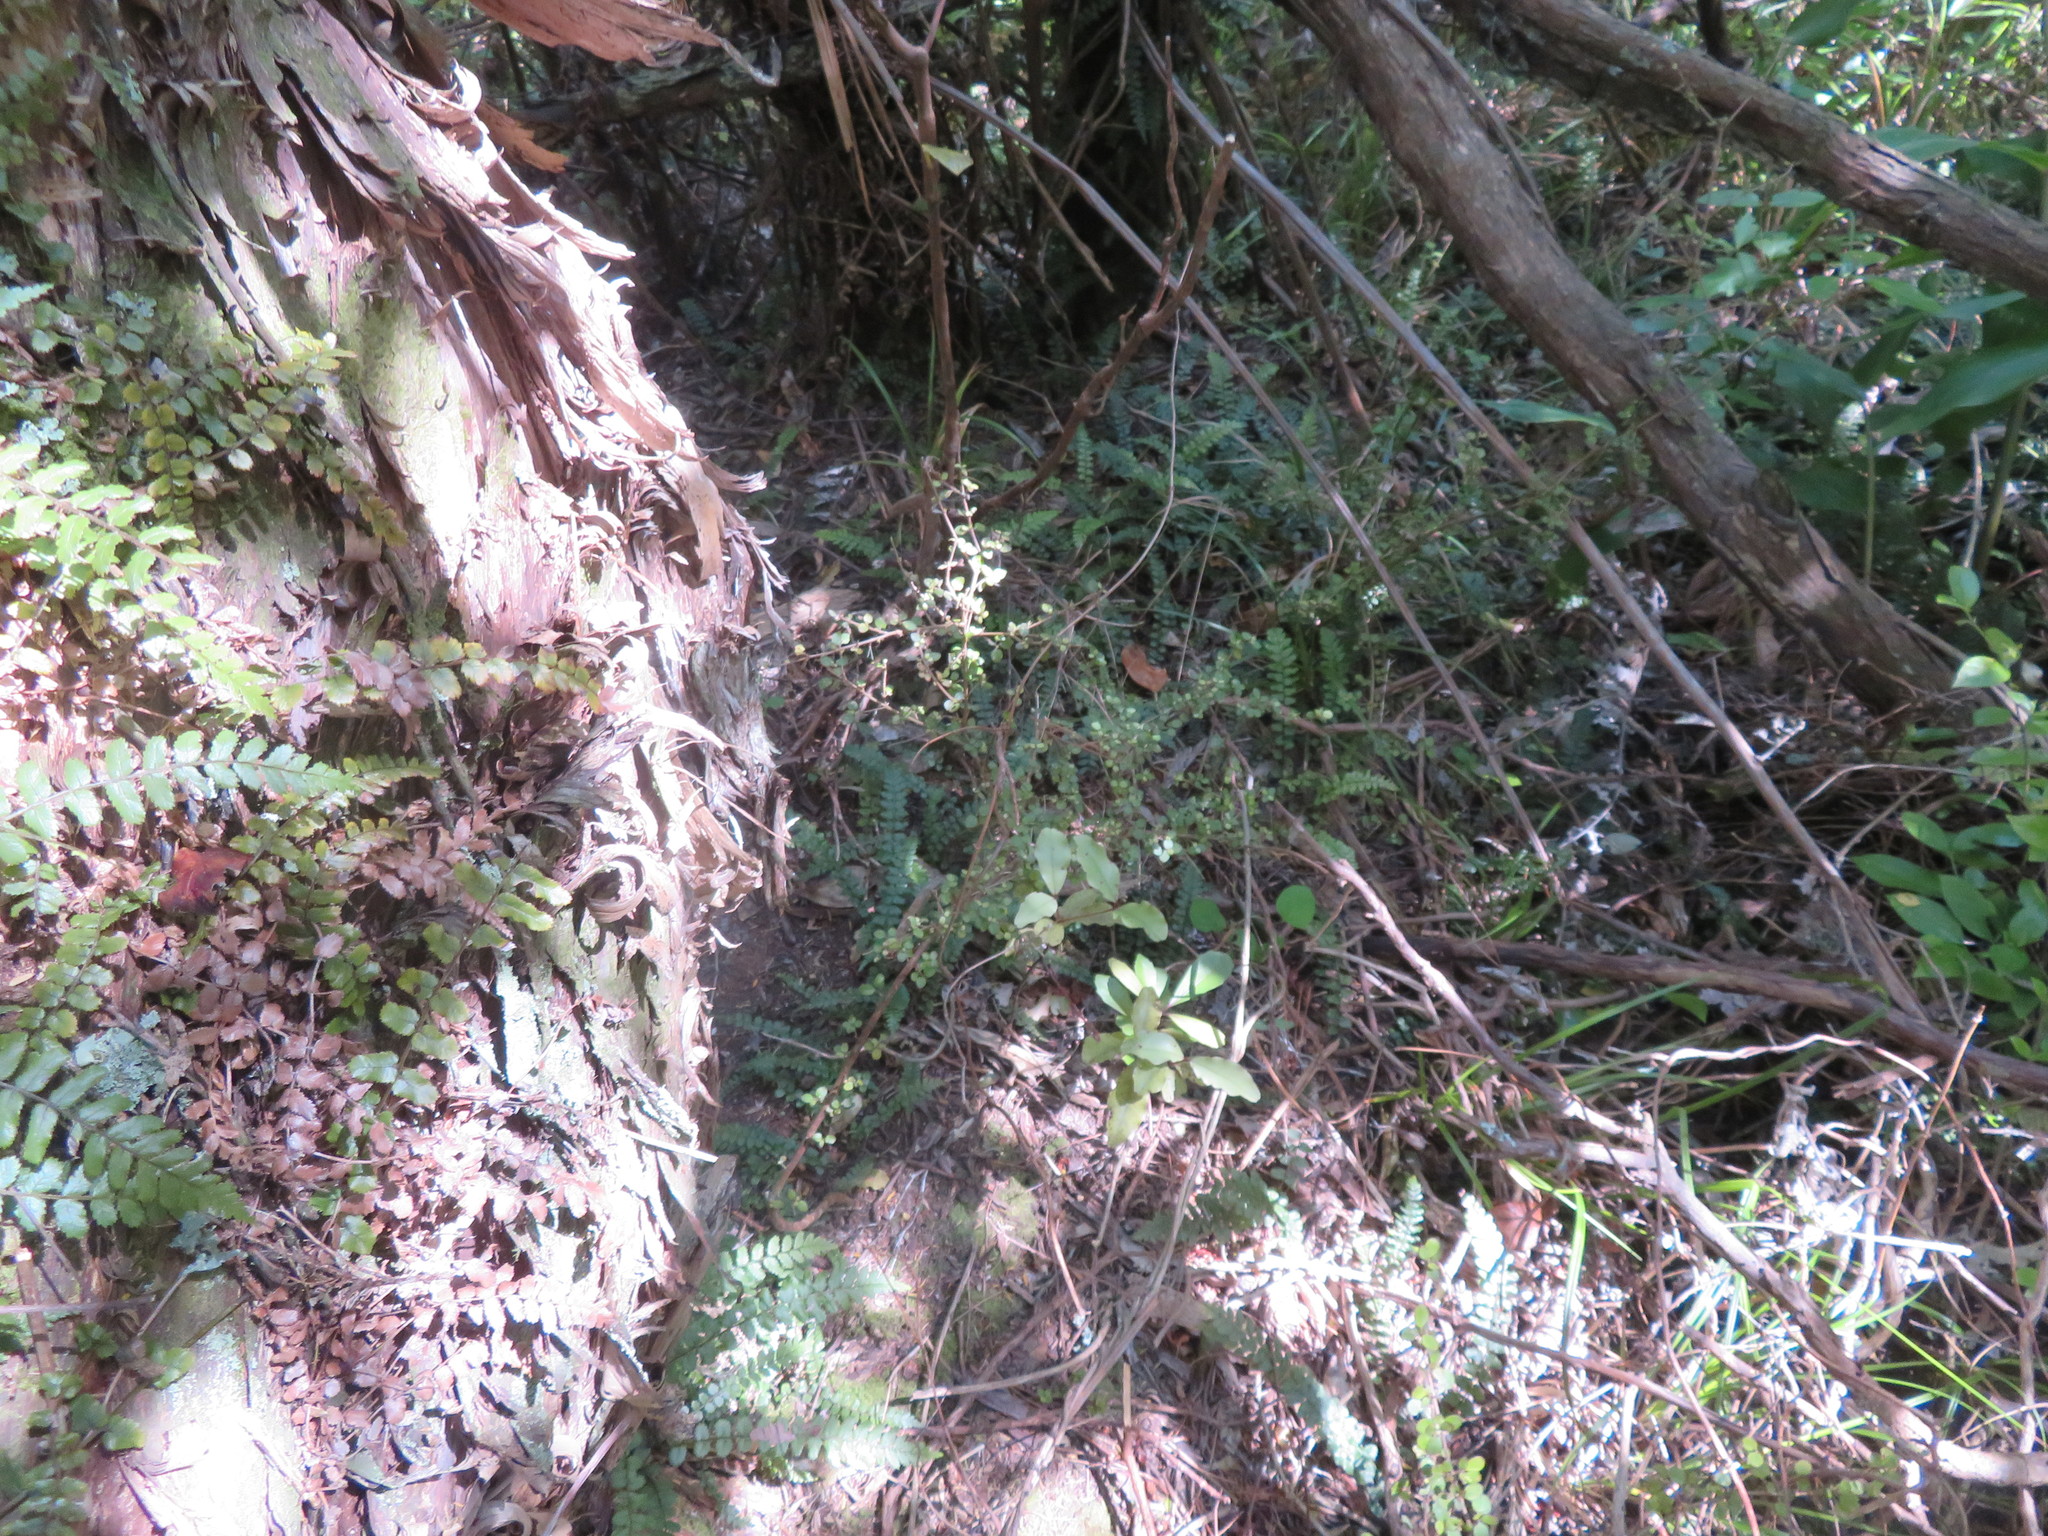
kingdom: Plantae
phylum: Tracheophyta
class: Magnoliopsida
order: Gentianales
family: Rubiaceae
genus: Coprosma
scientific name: Coprosma rhamnoides
